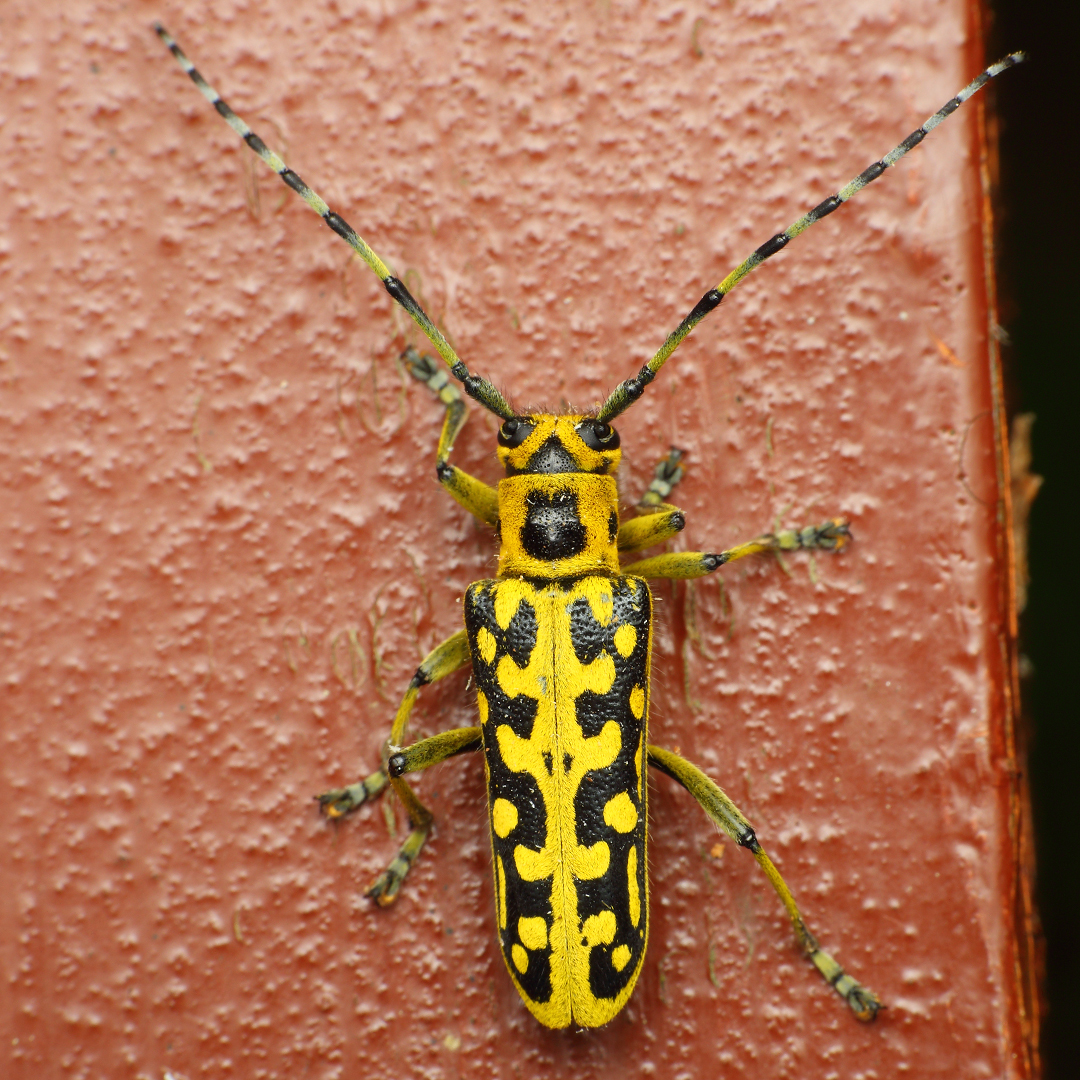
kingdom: Animalia
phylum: Arthropoda
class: Insecta
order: Coleoptera
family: Cerambycidae
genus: Saperda
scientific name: Saperda scalaris
